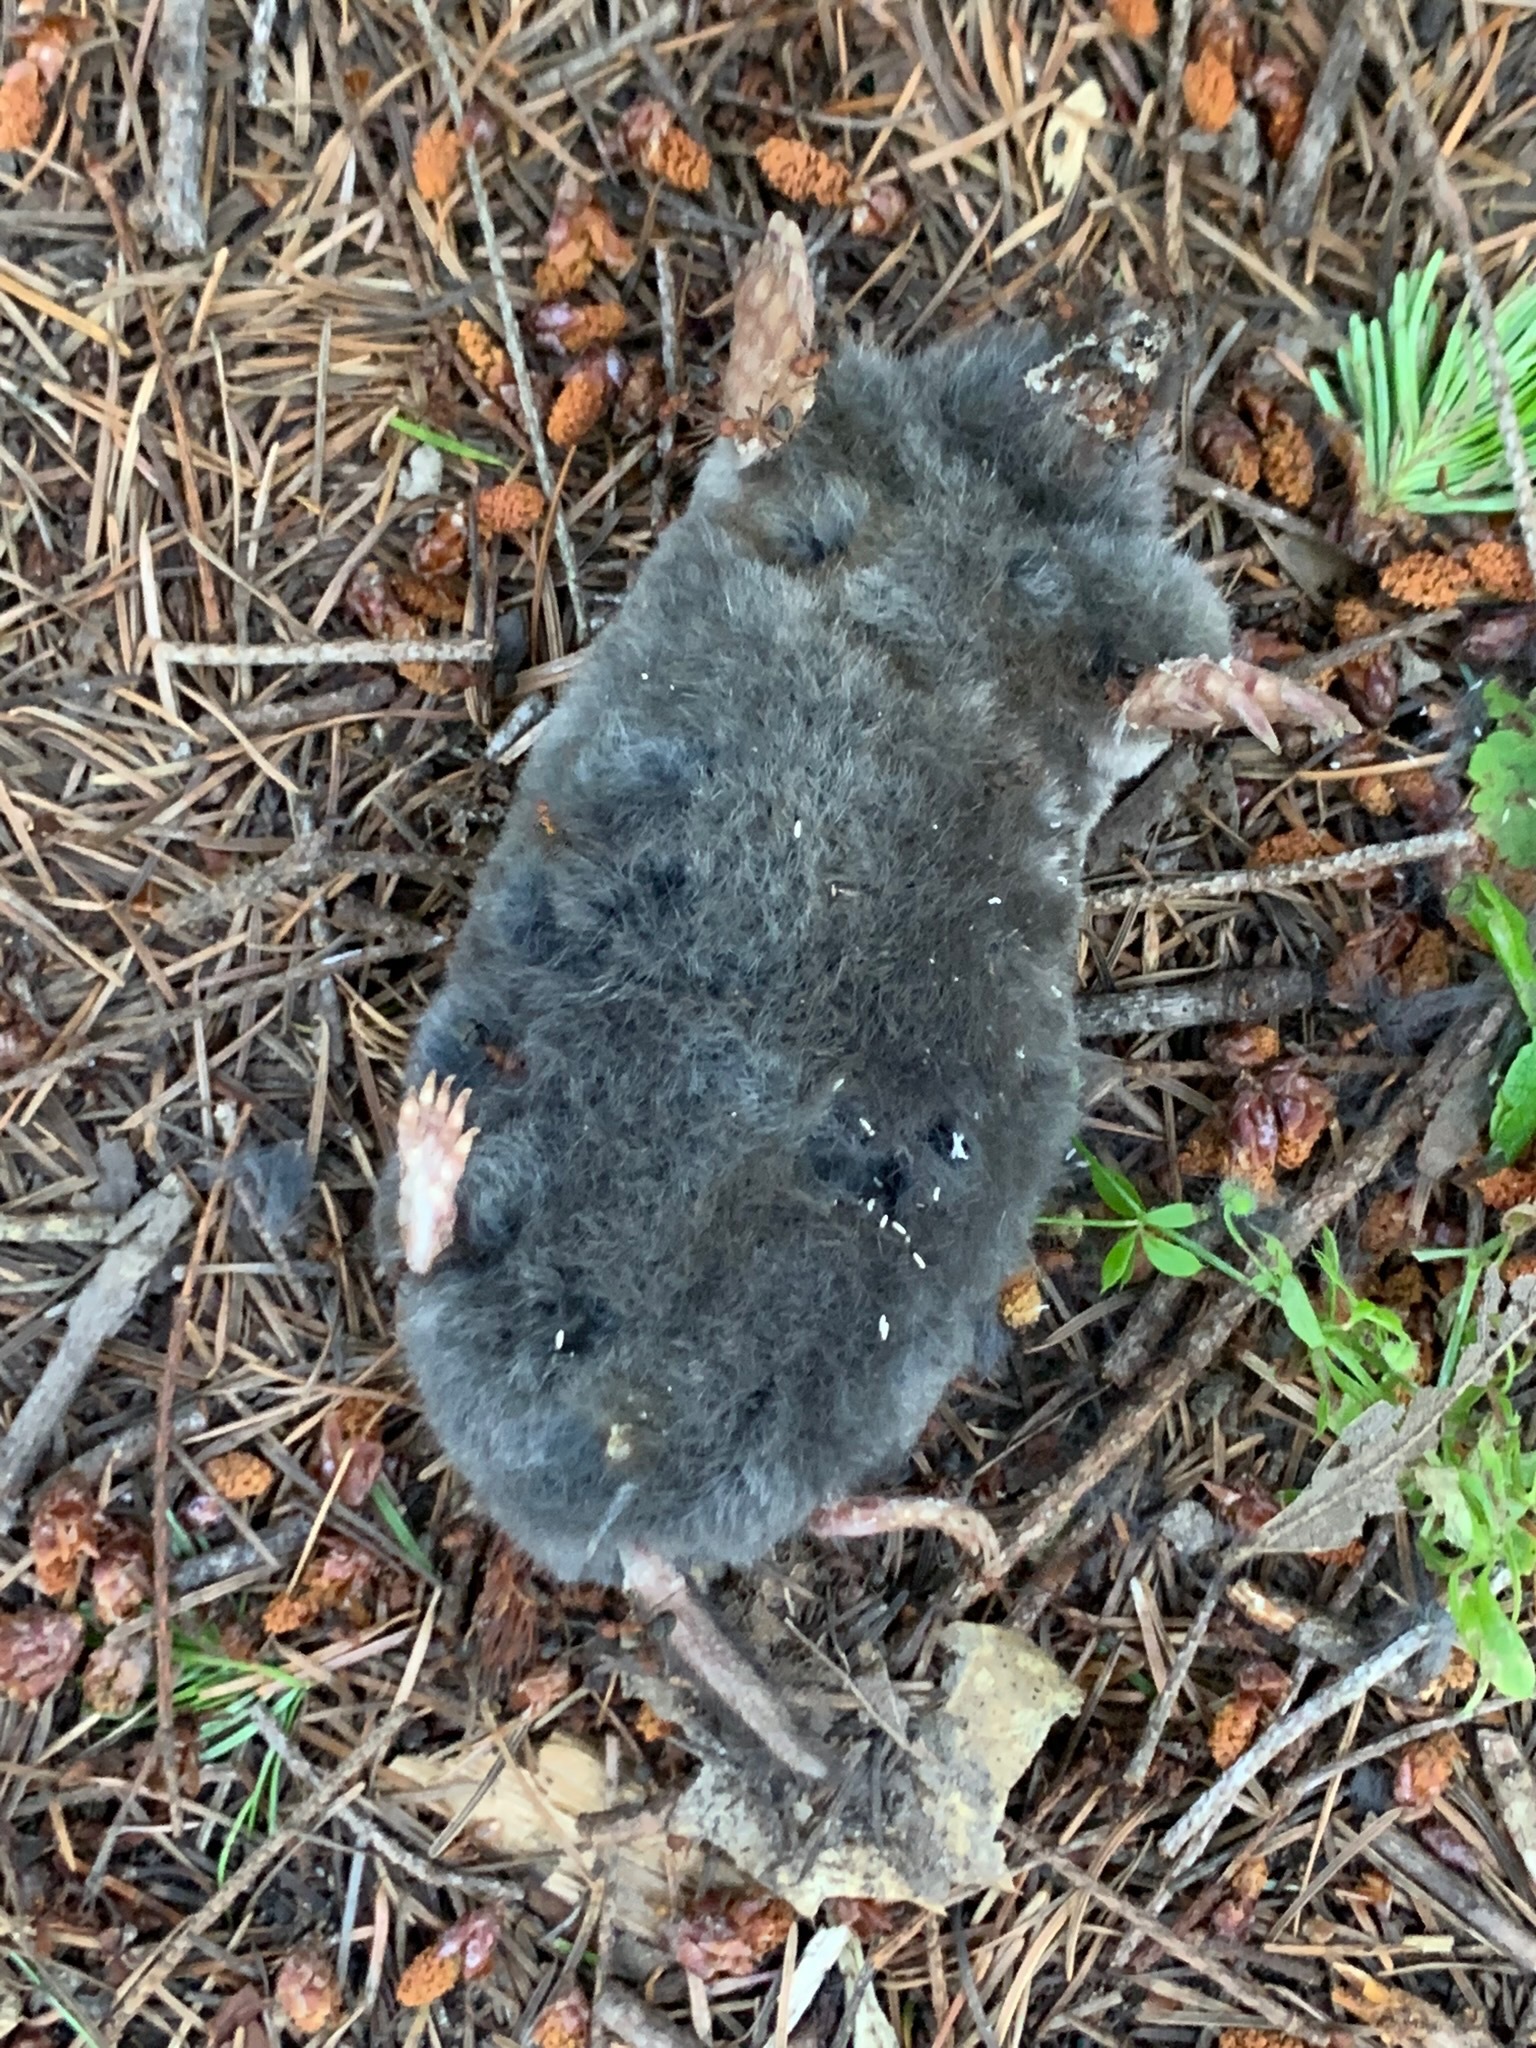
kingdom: Animalia
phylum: Chordata
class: Mammalia
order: Soricomorpha
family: Talpidae
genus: Scapanus
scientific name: Scapanus latimanus
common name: Broad-footed mole
